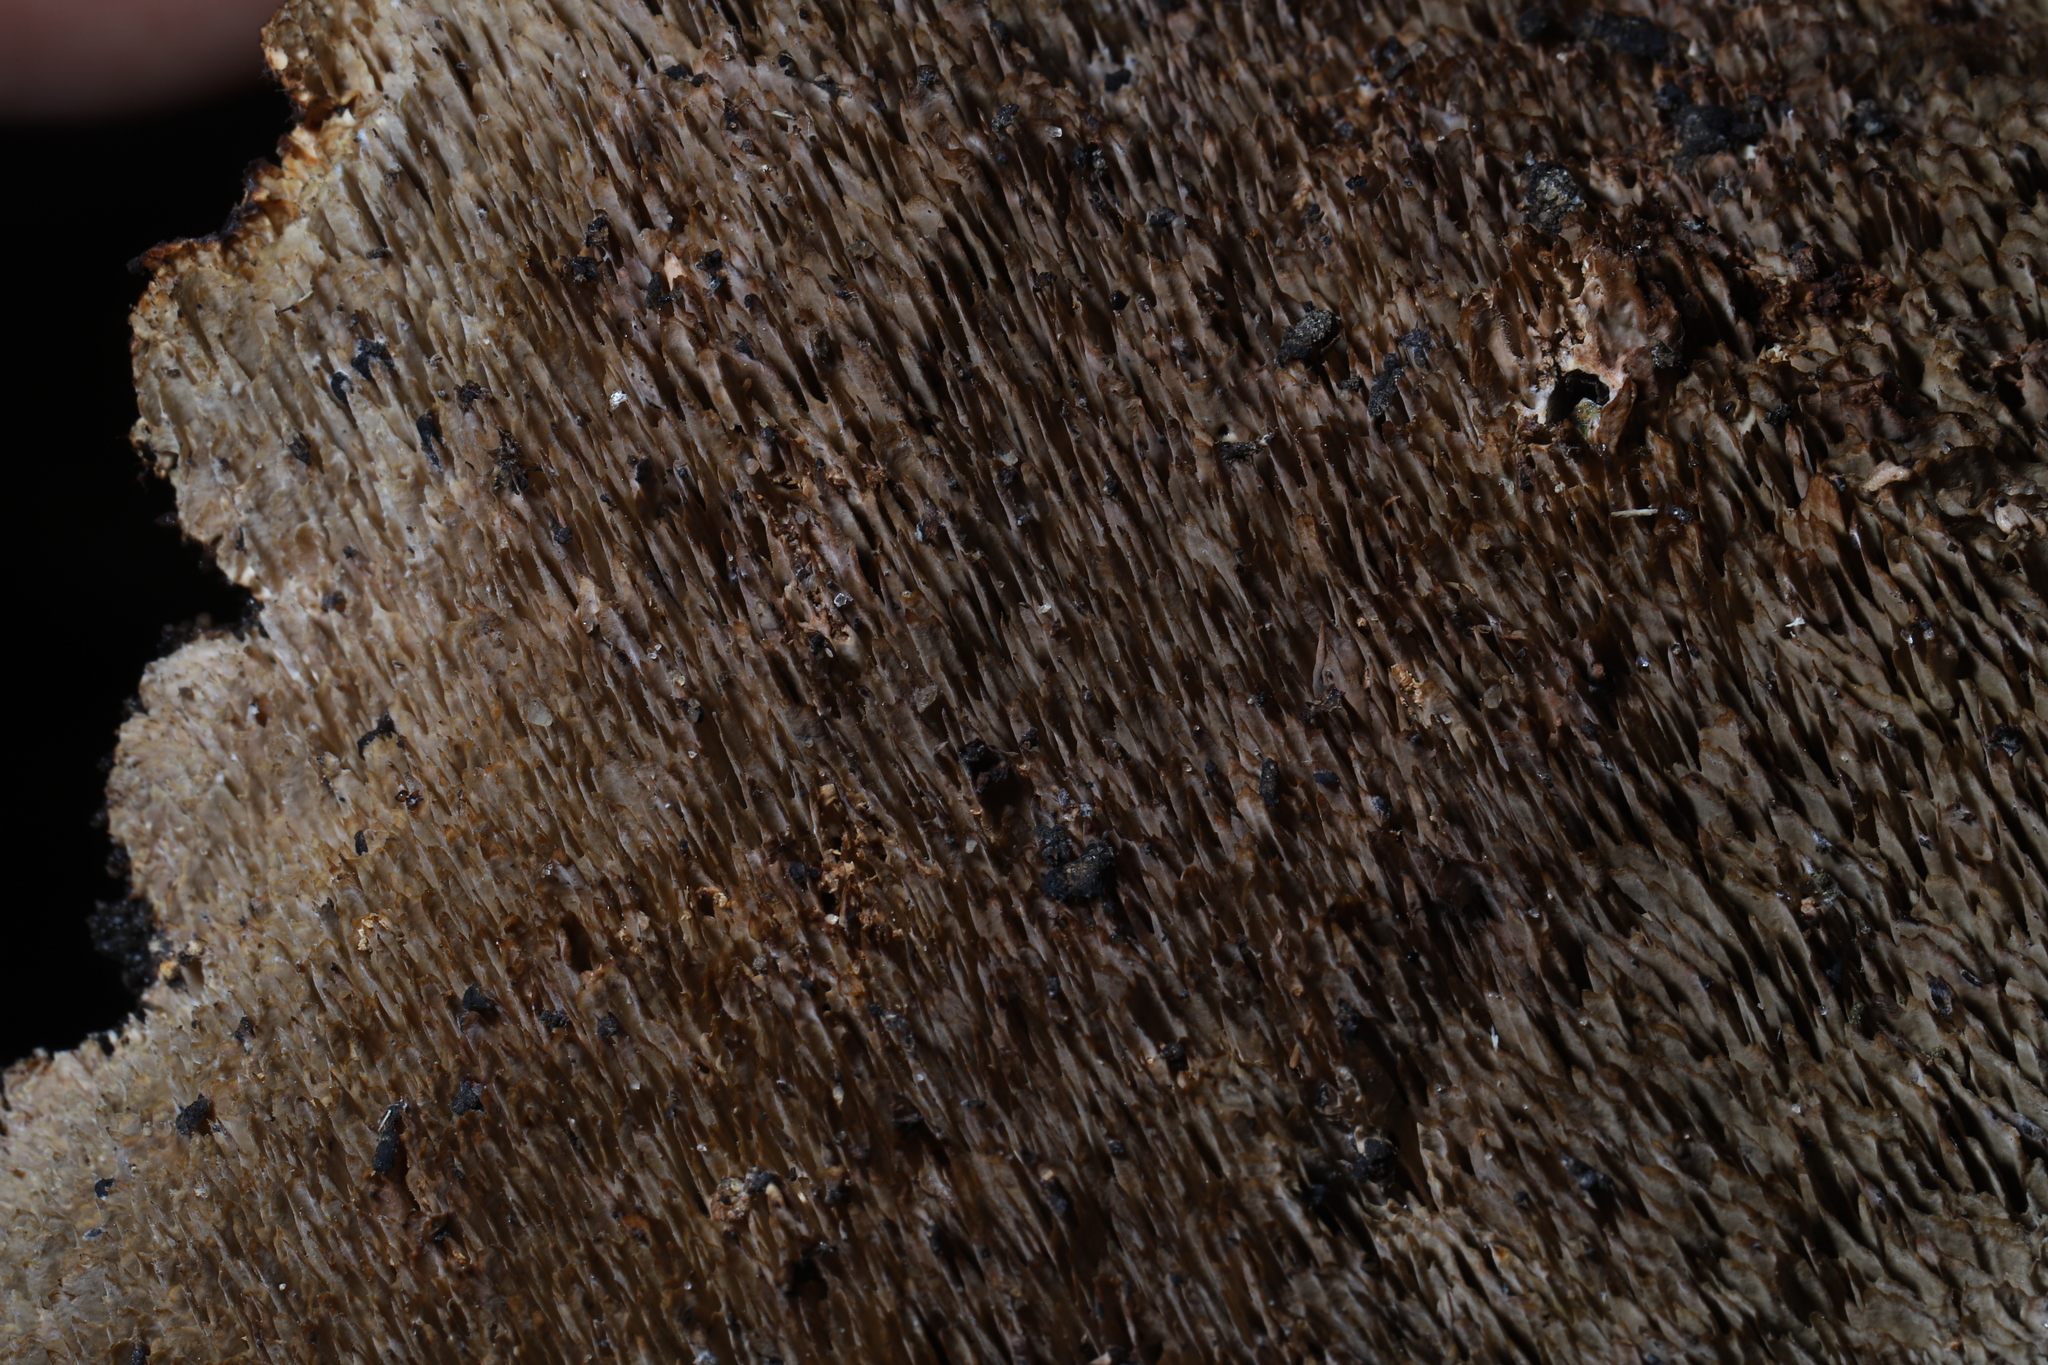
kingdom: Fungi
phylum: Basidiomycota
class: Agaricomycetes
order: Polyporales
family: Polyporaceae
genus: Daedaleopsis
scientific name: Daedaleopsis confragosa
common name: Blushing bracket
